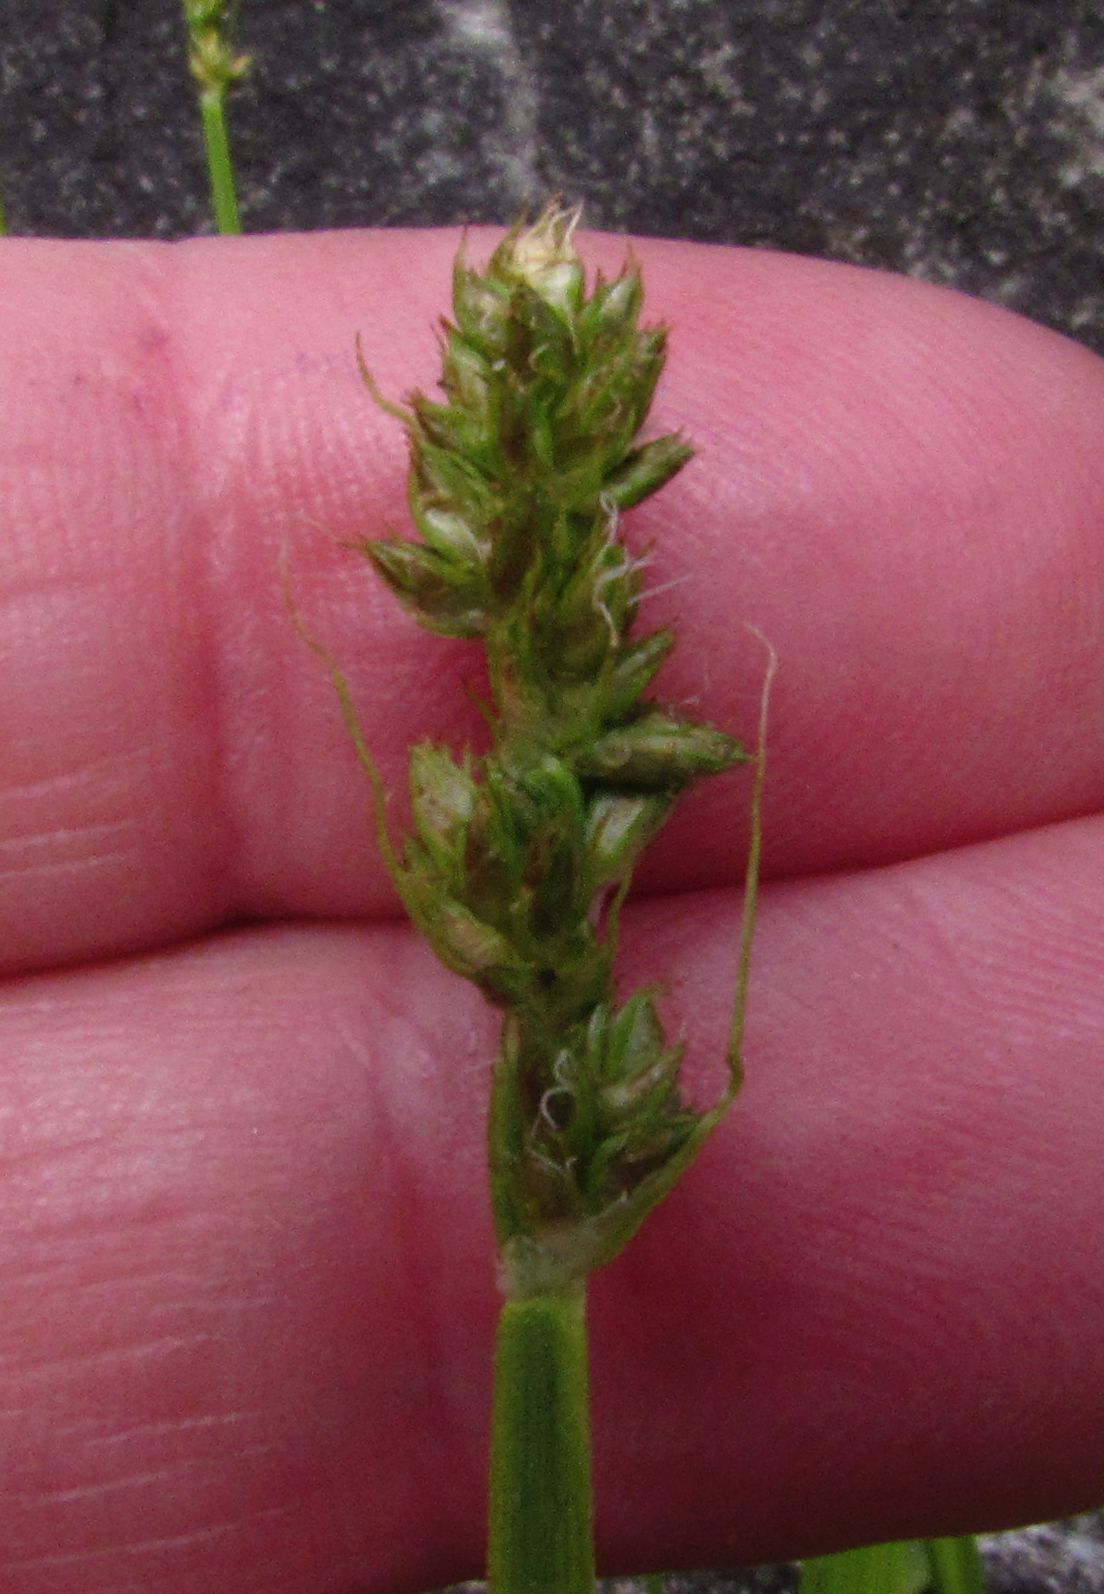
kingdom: Plantae
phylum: Tracheophyta
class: Liliopsida
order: Poales
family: Cyperaceae
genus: Carex
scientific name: Carex otrubae
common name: False fox-sedge
